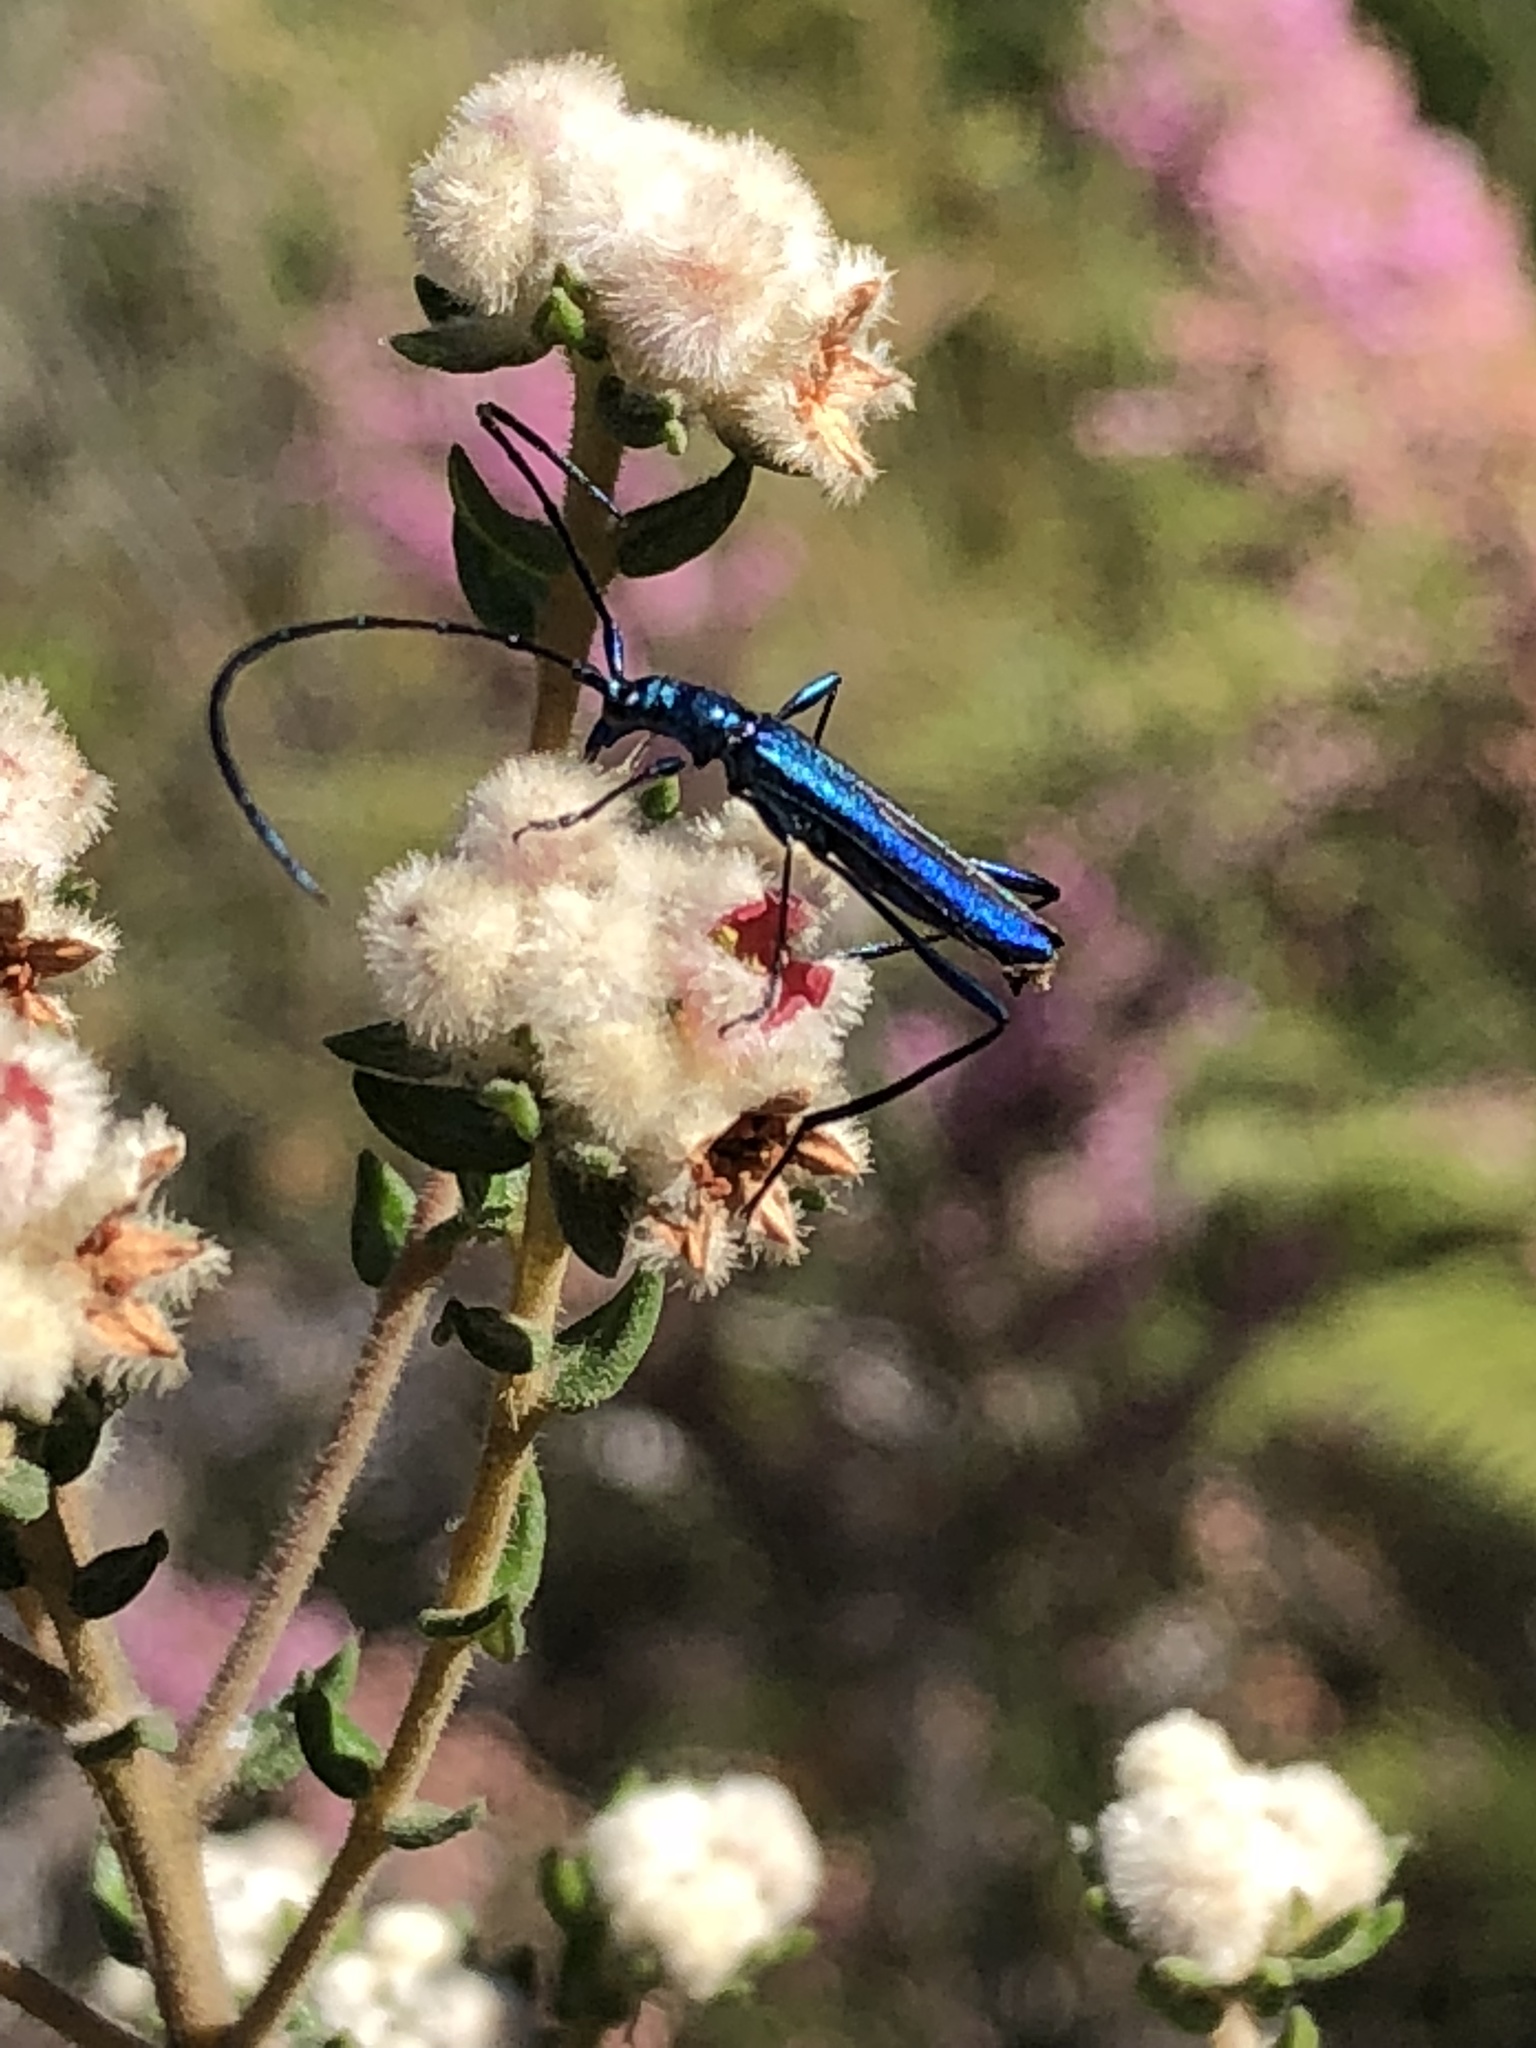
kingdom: Animalia
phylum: Arthropoda
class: Insecta
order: Coleoptera
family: Cerambycidae
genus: Promeces
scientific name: Promeces longipes
